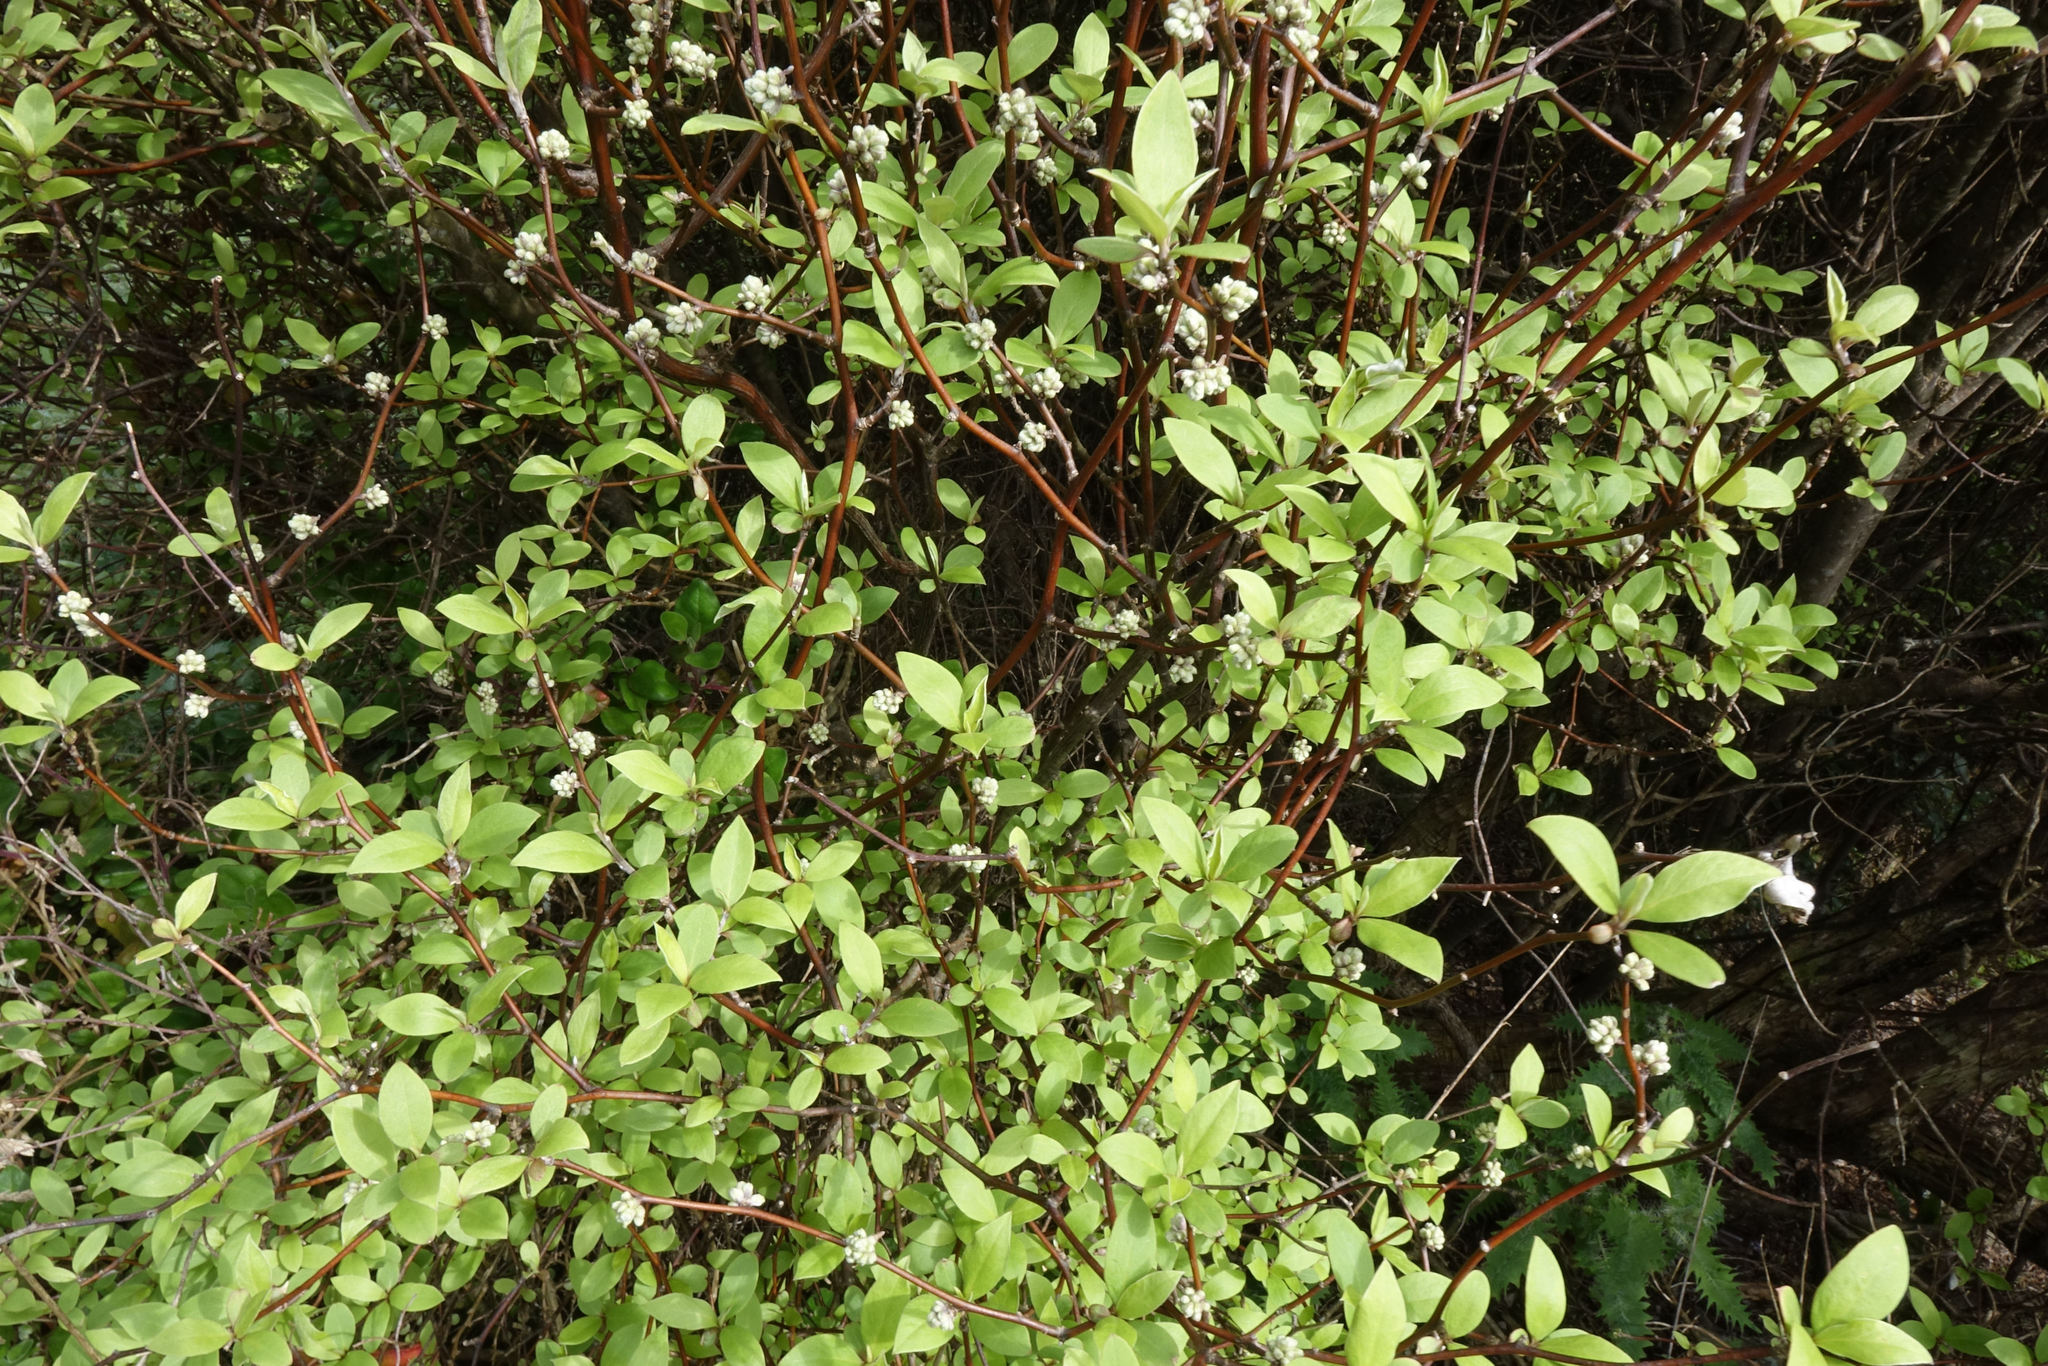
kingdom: Plantae
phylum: Tracheophyta
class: Magnoliopsida
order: Asterales
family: Asteraceae
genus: Olearia
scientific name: Olearia fragrantissima
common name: Fragrant tree daisy
